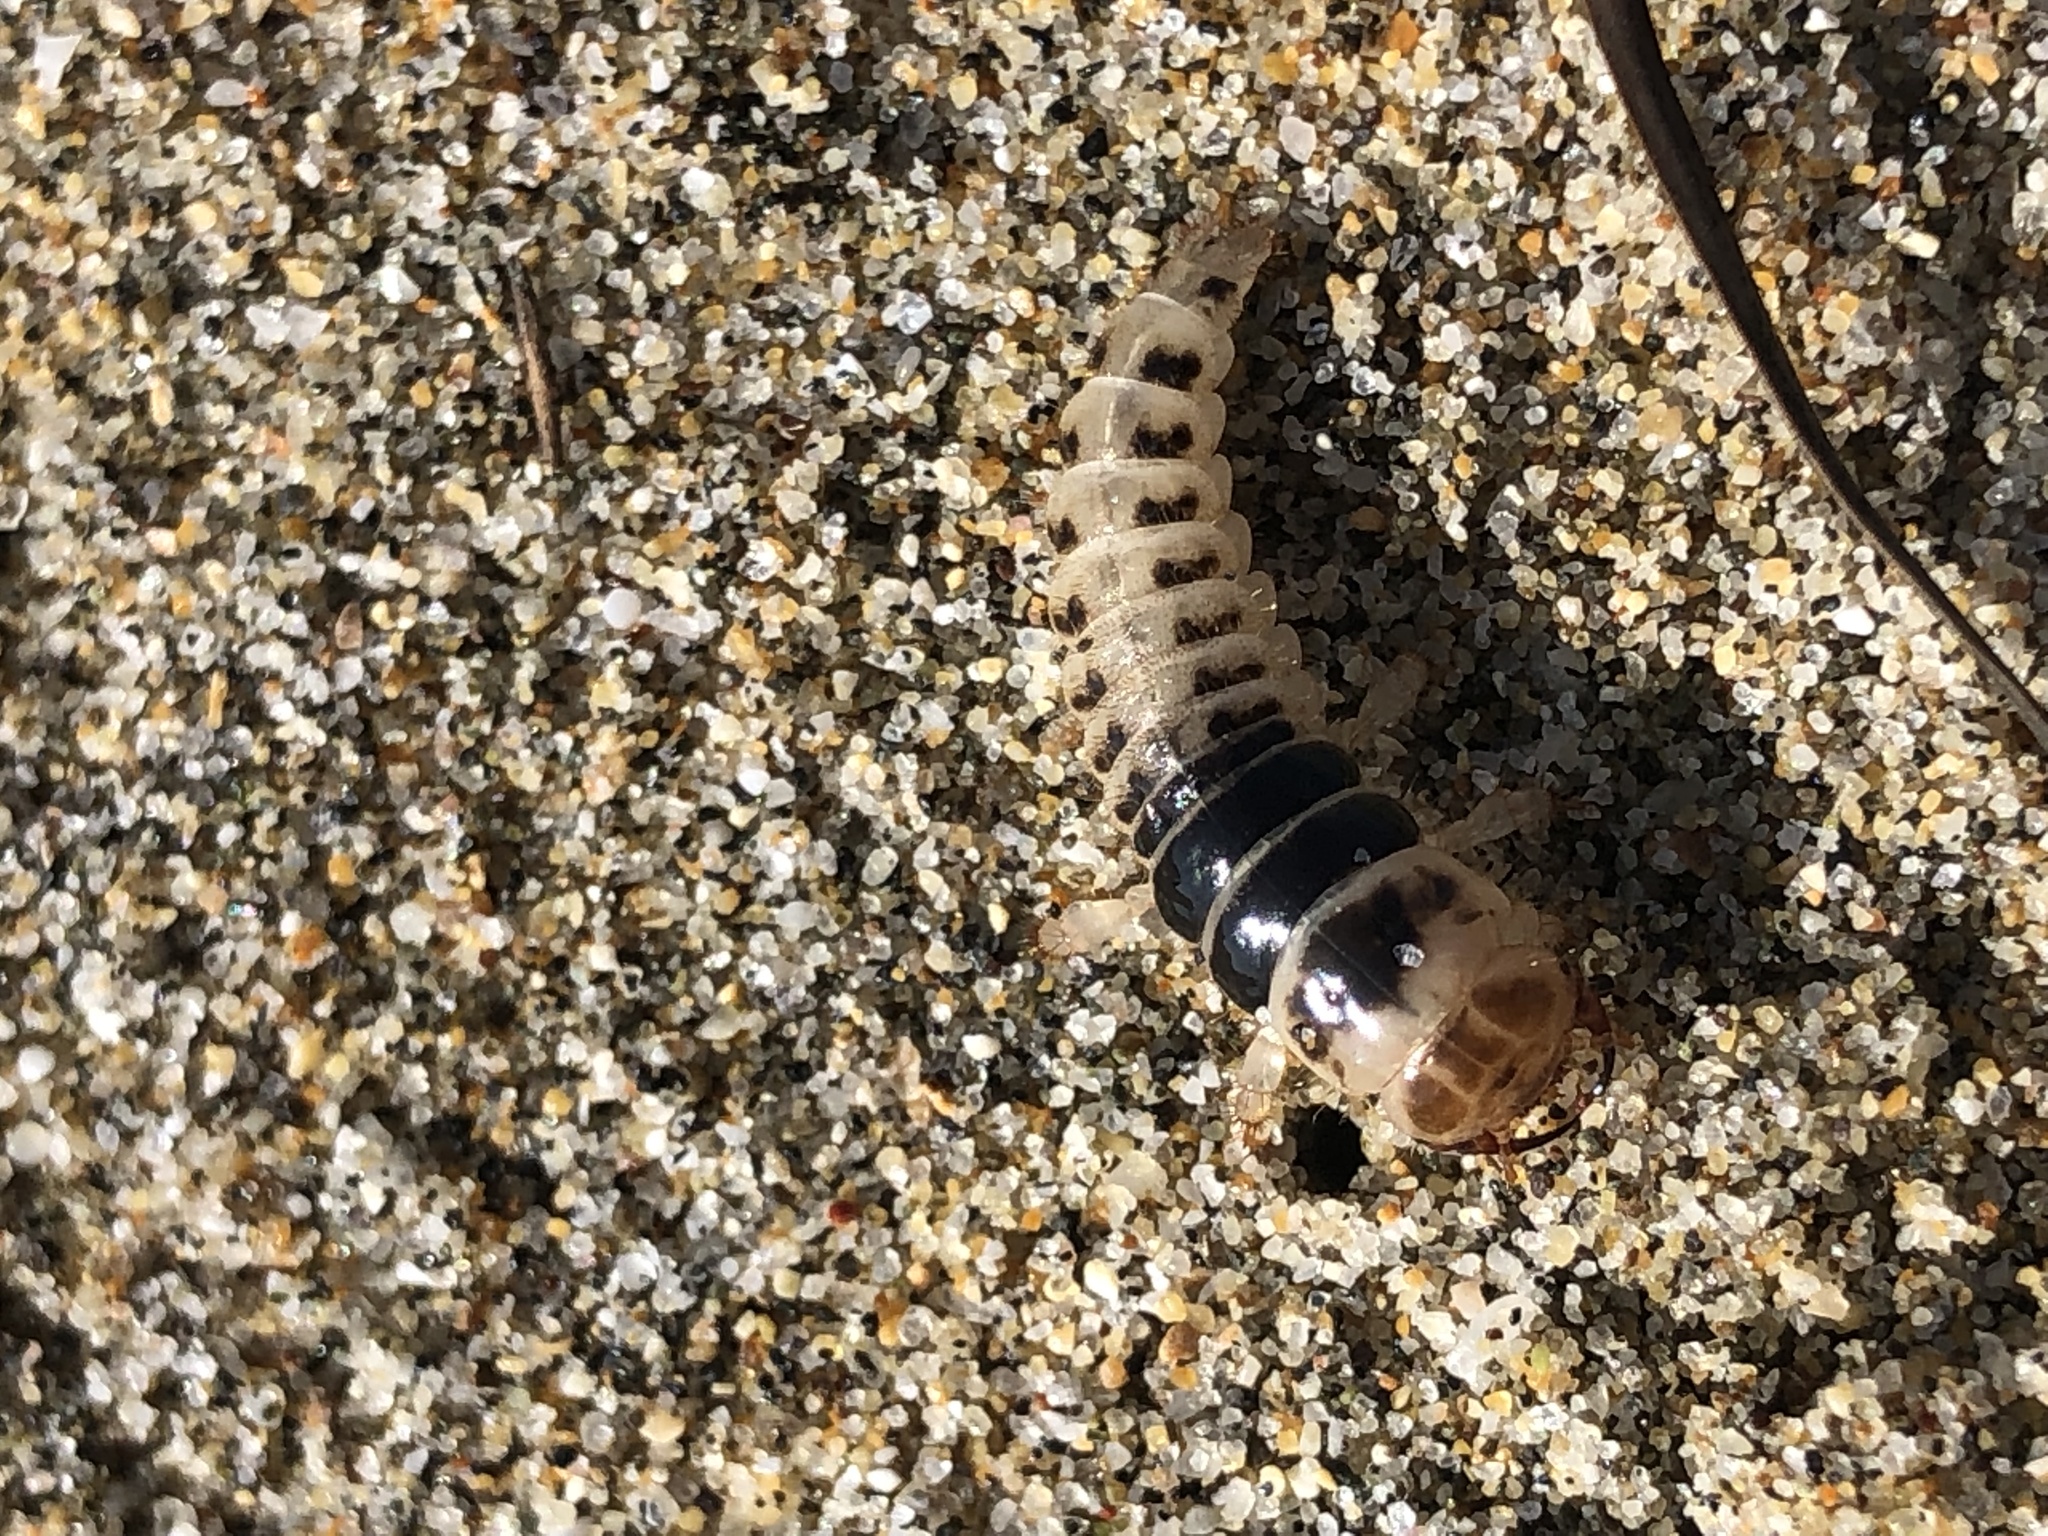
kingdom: Animalia
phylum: Arthropoda
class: Insecta
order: Coleoptera
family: Staphylinidae
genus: Thinopinus
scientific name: Thinopinus pictus
